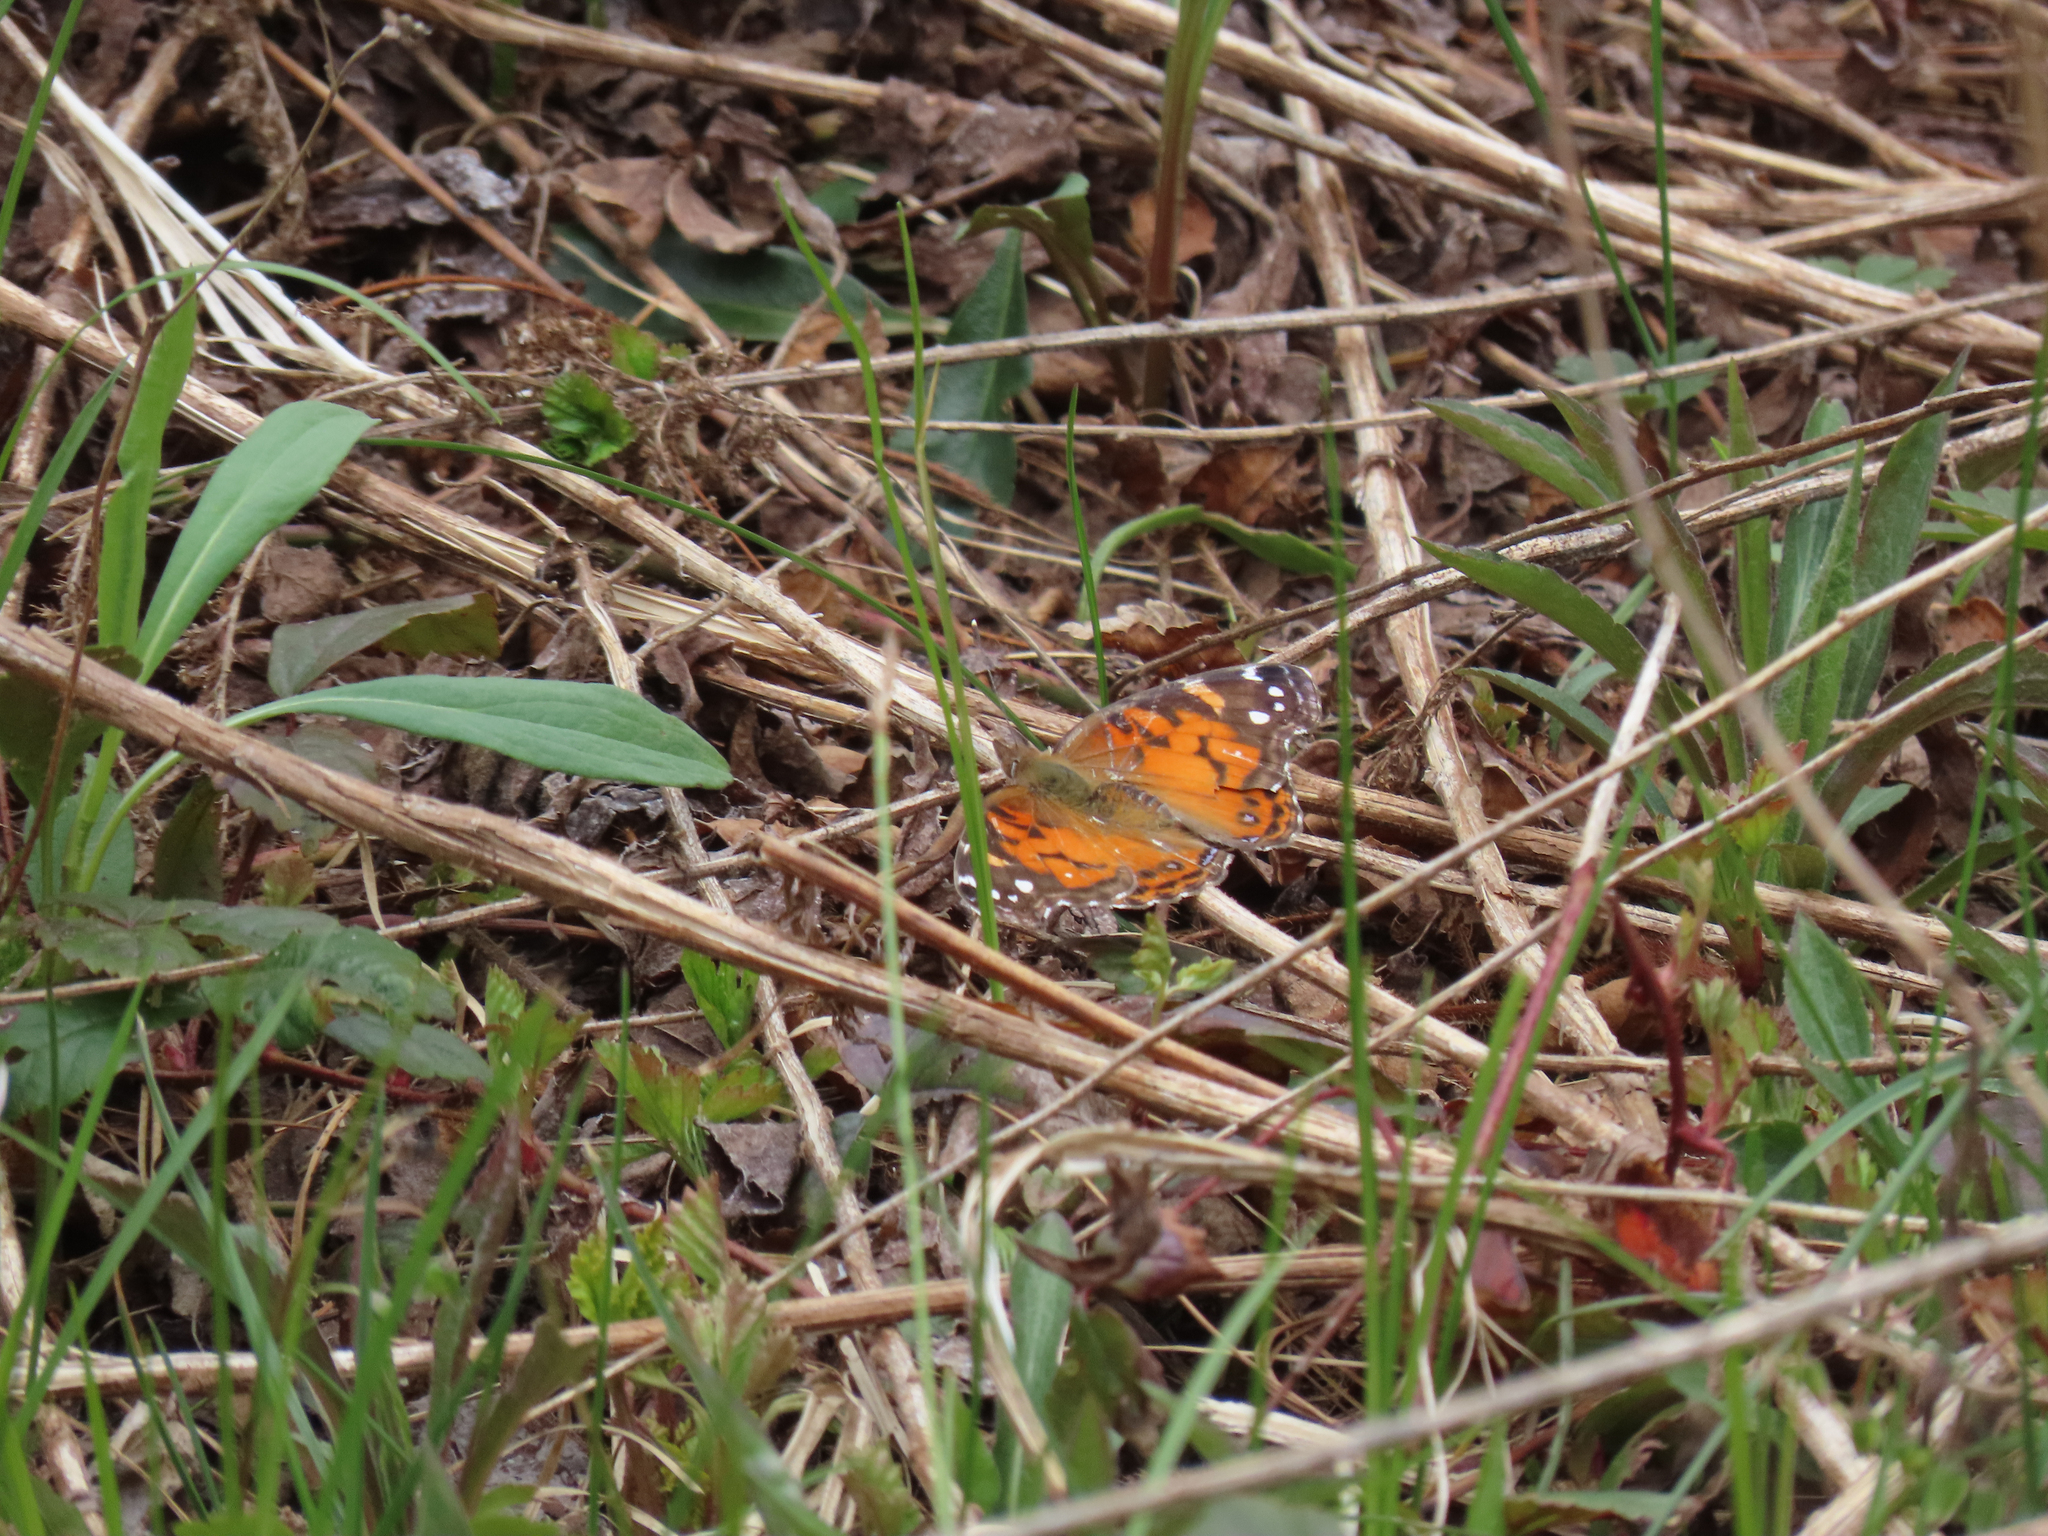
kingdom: Animalia
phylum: Arthropoda
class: Insecta
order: Lepidoptera
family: Nymphalidae
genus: Vanessa
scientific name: Vanessa virginiensis
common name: American lady
